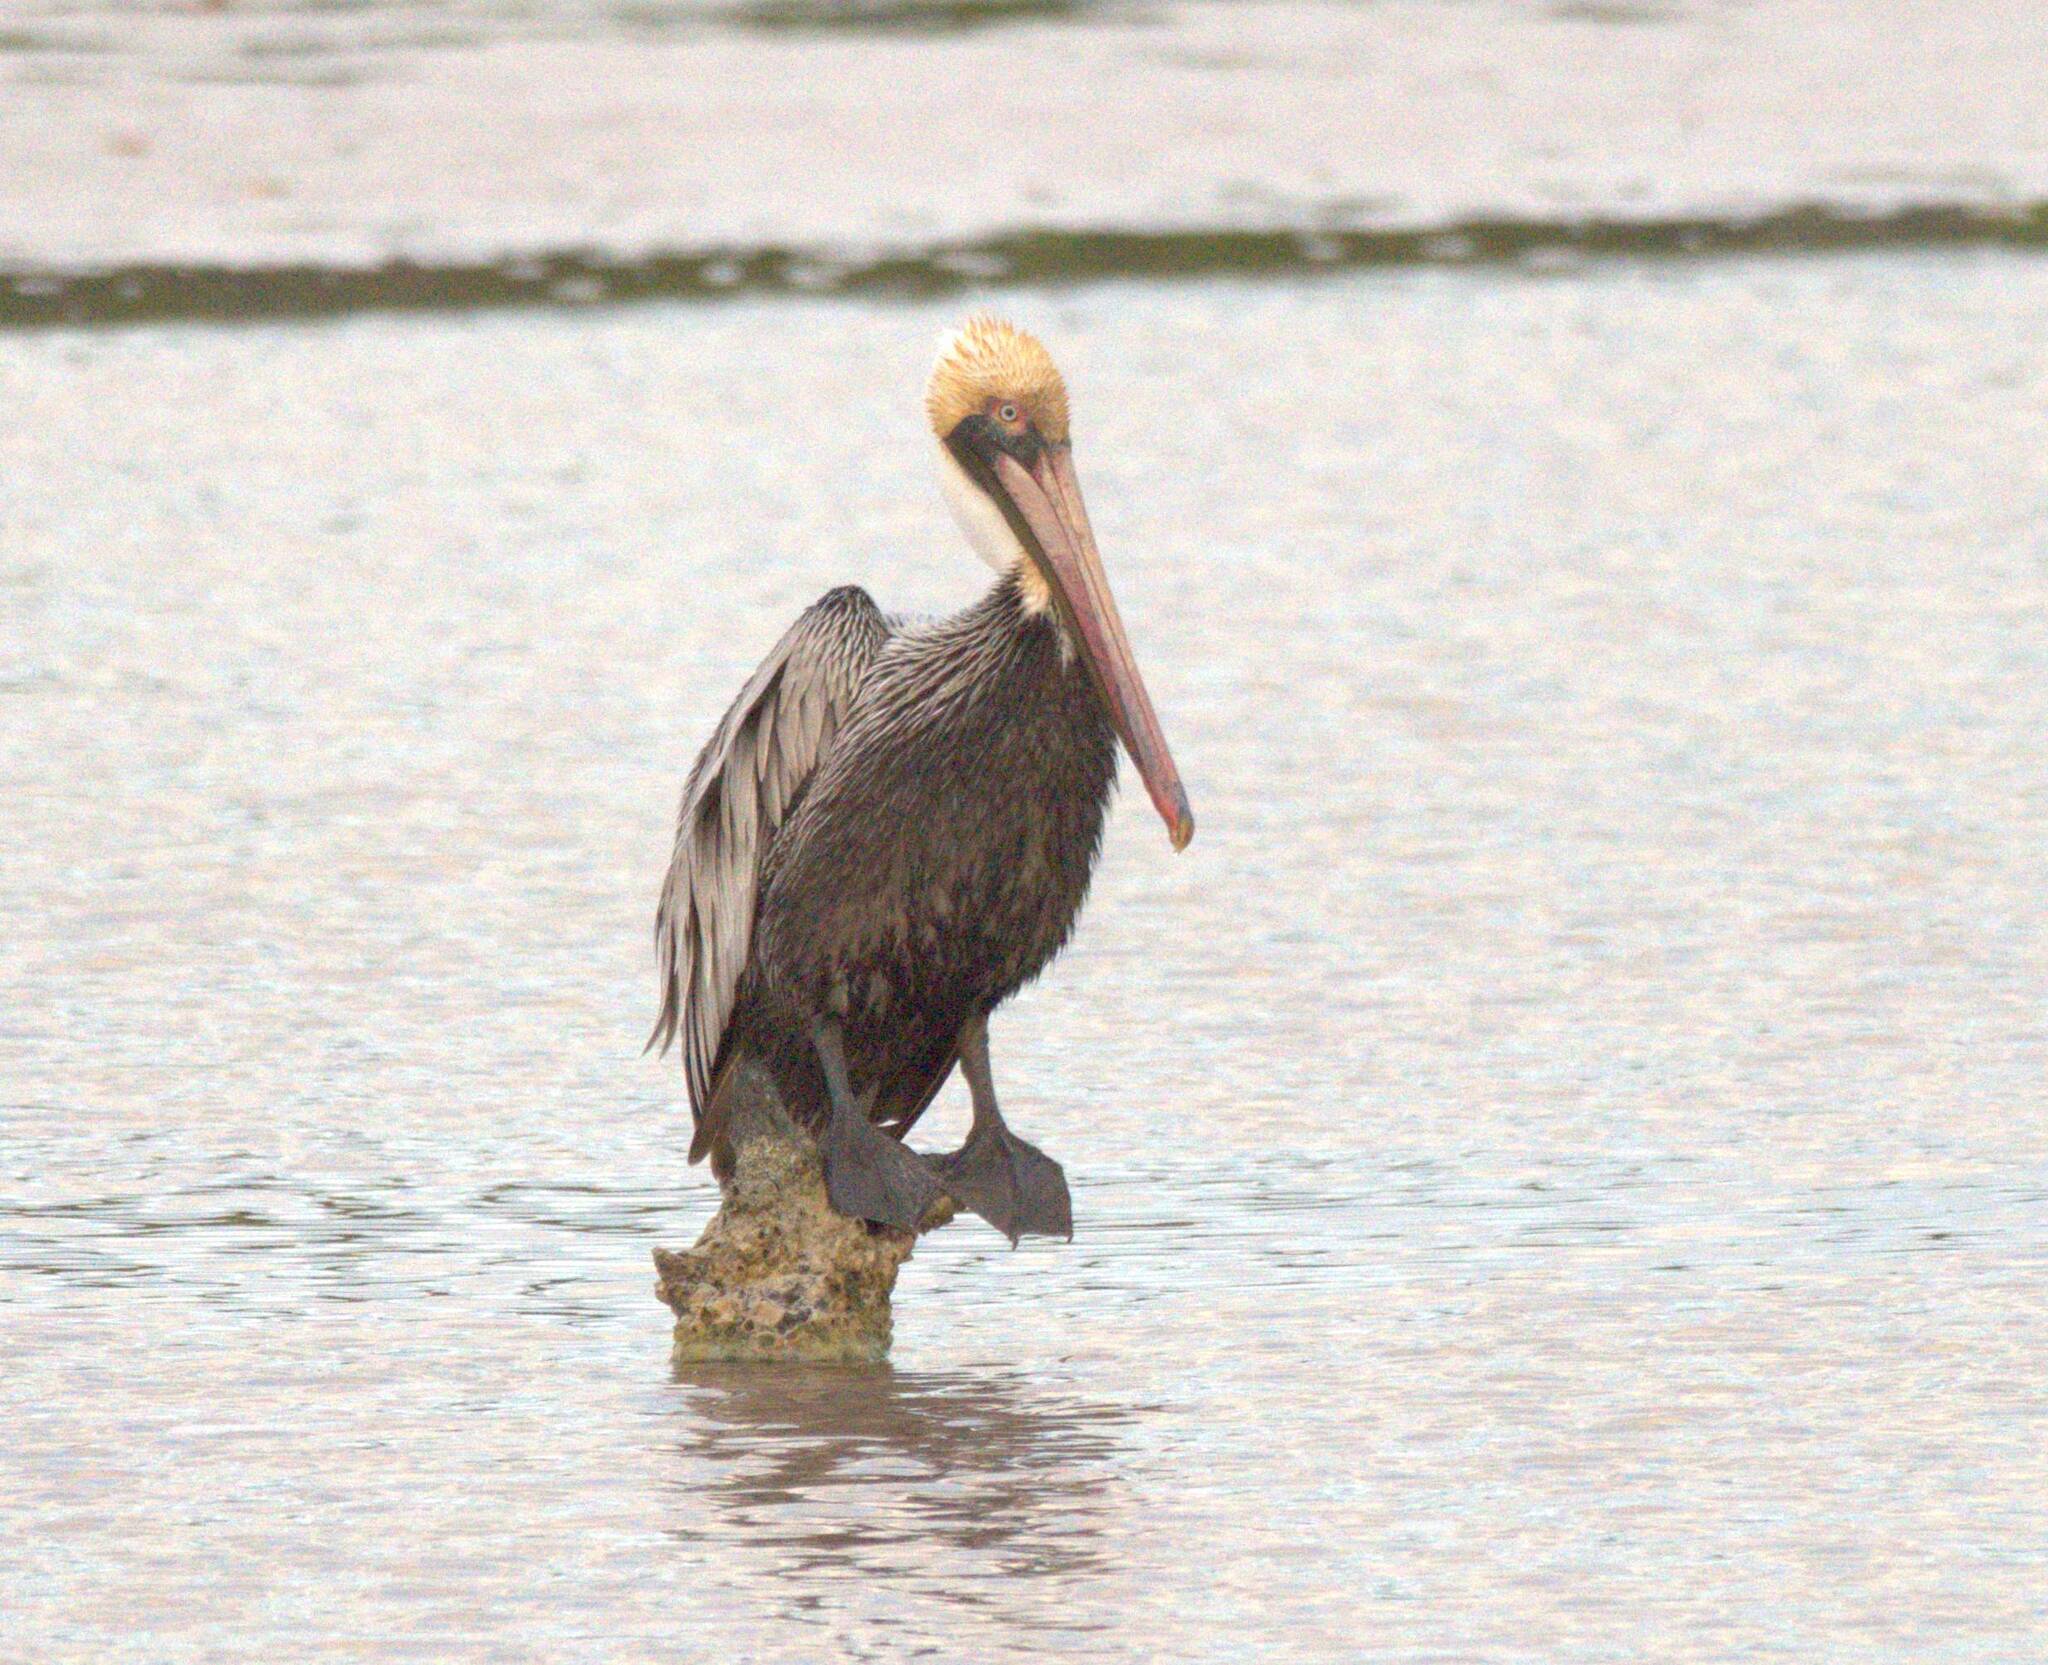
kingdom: Animalia
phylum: Chordata
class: Aves
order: Pelecaniformes
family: Pelecanidae
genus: Pelecanus
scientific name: Pelecanus occidentalis
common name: Brown pelican
